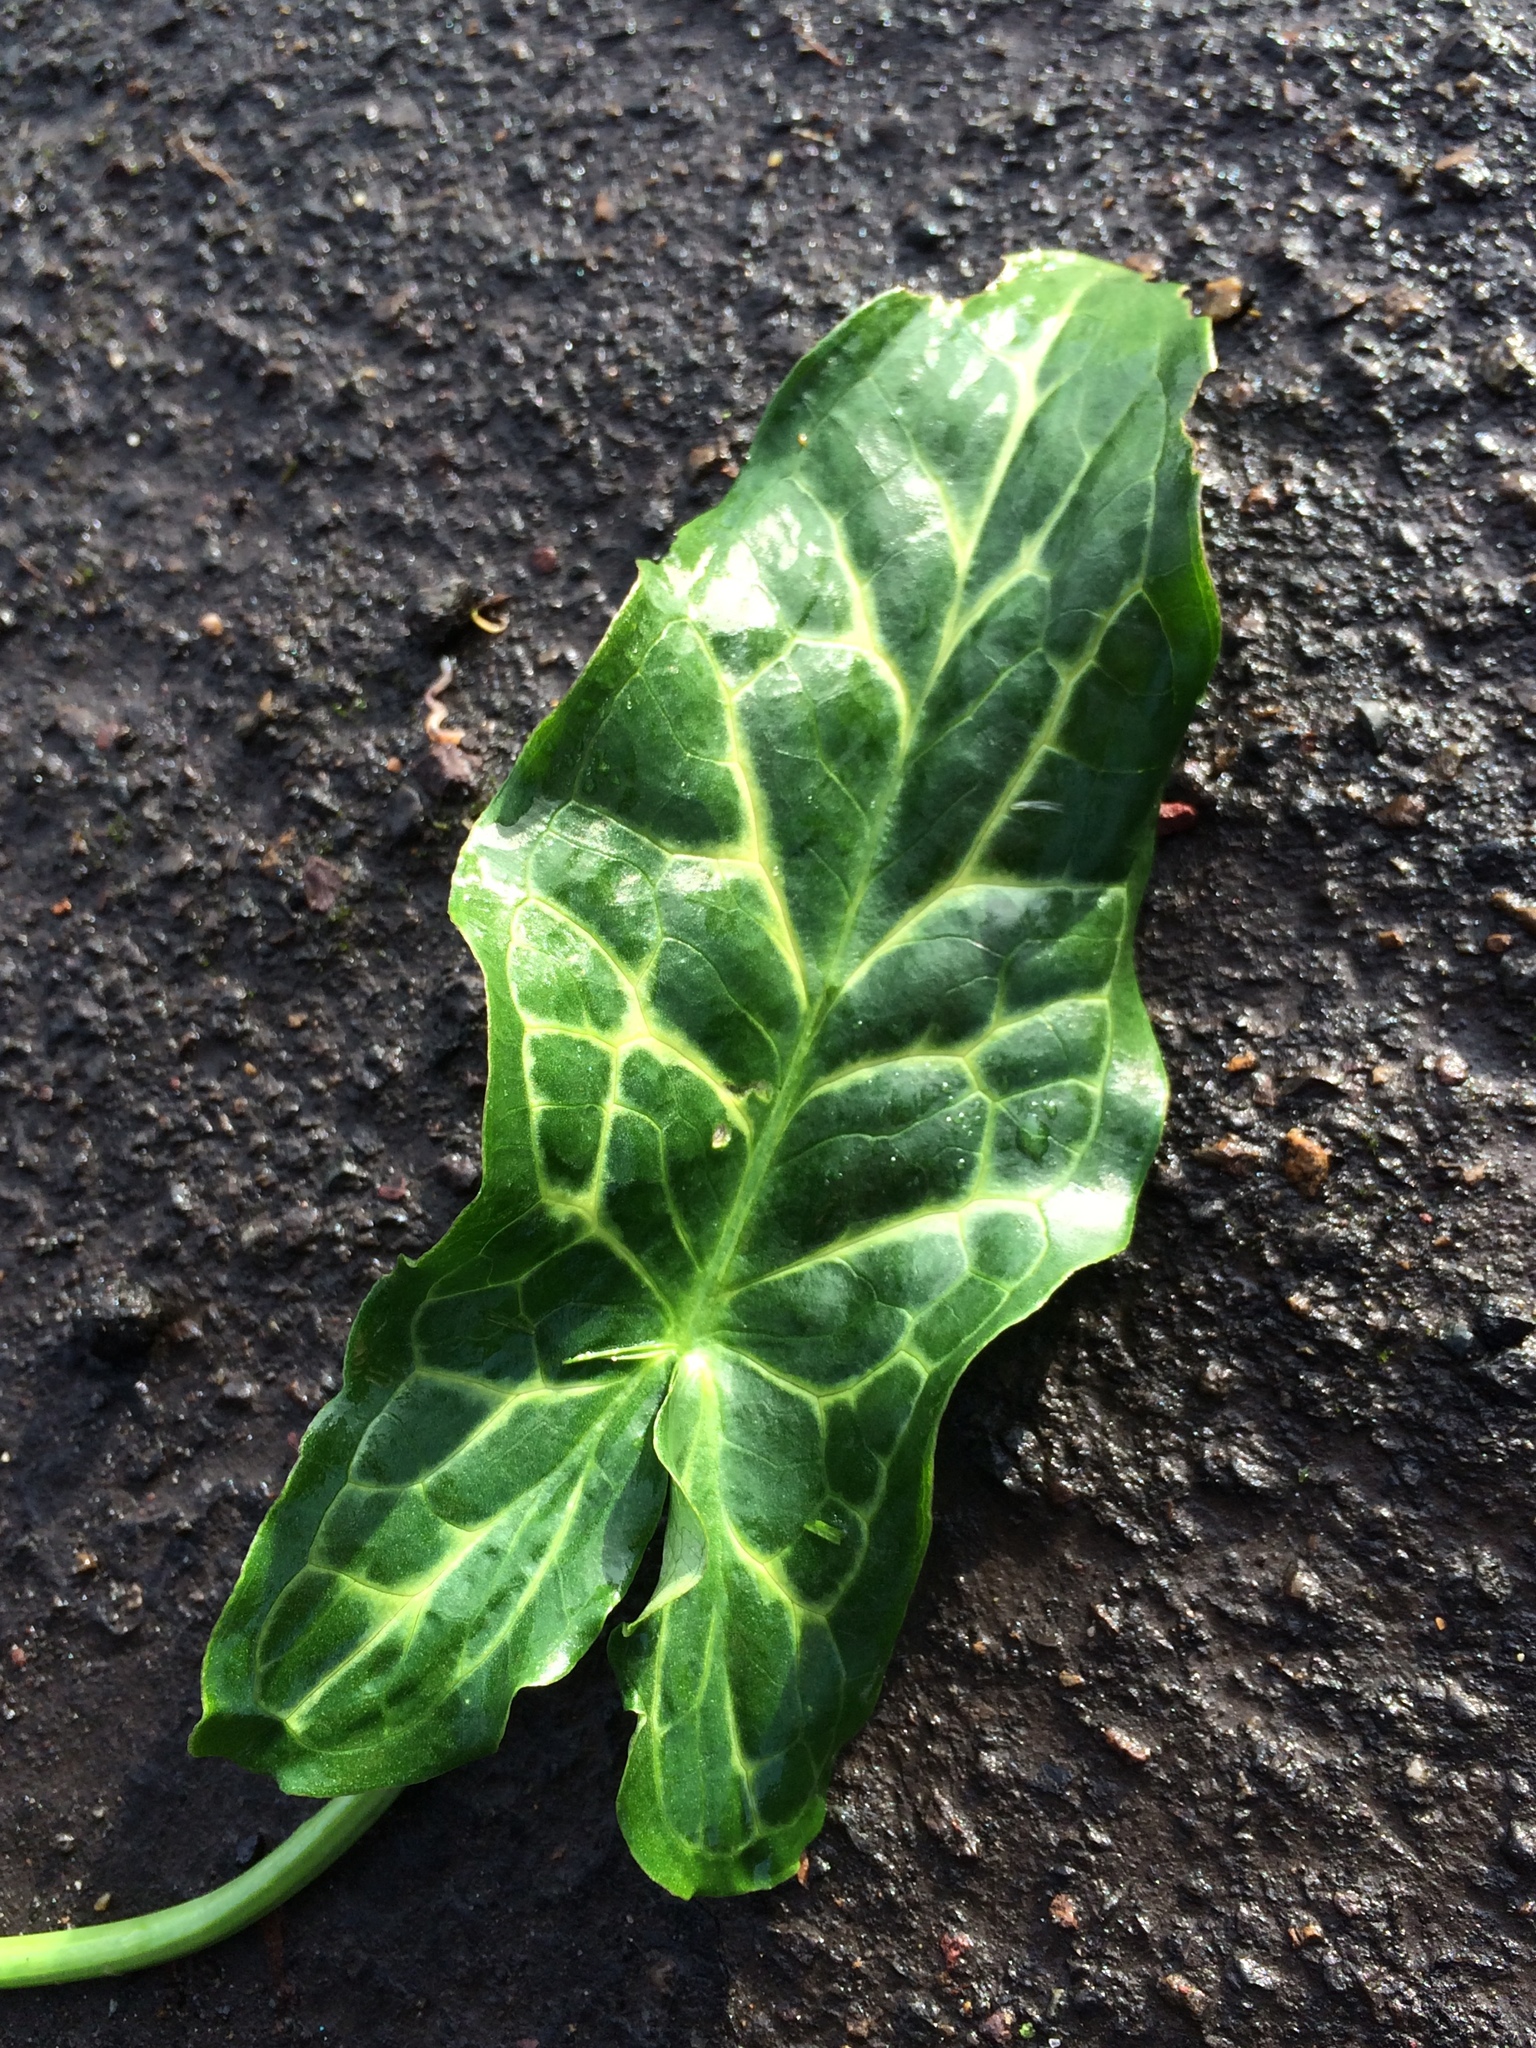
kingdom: Plantae
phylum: Tracheophyta
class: Liliopsida
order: Alismatales
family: Araceae
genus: Arum
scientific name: Arum italicum
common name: Italian lords-and-ladies
